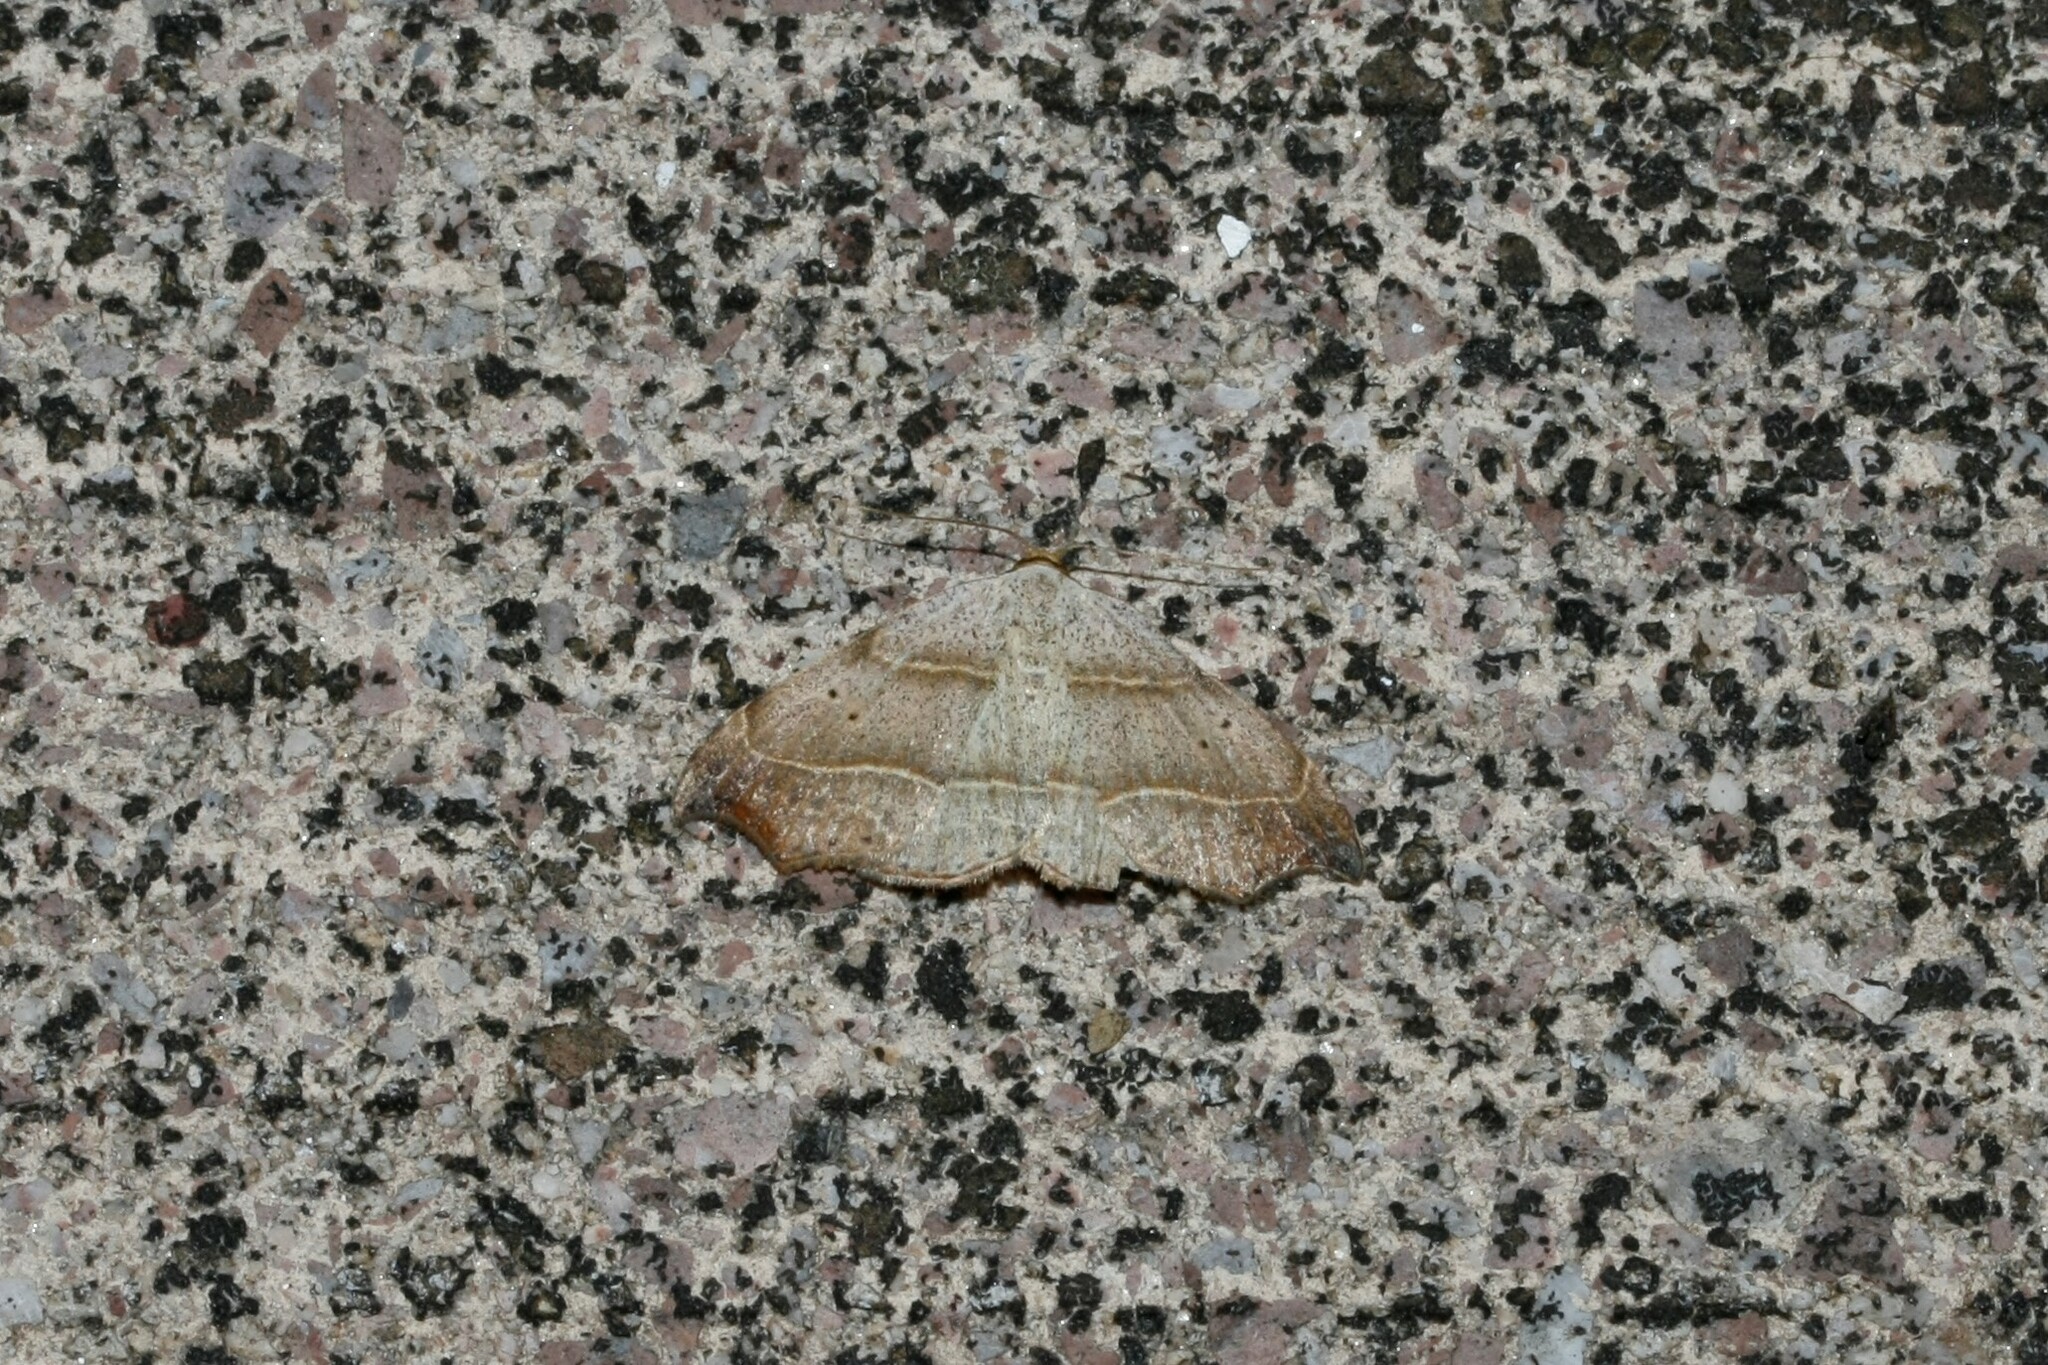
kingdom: Animalia
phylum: Arthropoda
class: Insecta
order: Lepidoptera
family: Erebidae
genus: Laspeyria
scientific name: Laspeyria flexula
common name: Beautiful hook-tip
